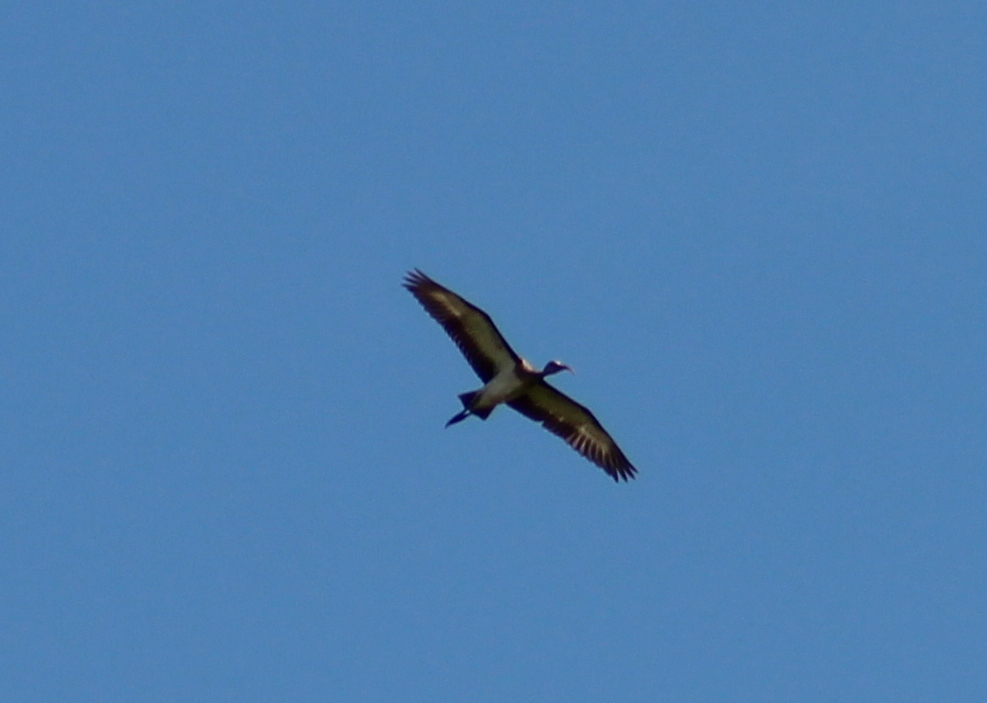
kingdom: Animalia
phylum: Chordata
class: Aves
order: Pelecaniformes
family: Threskiornithidae
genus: Eudocimus
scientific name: Eudocimus albus
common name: White ibis
